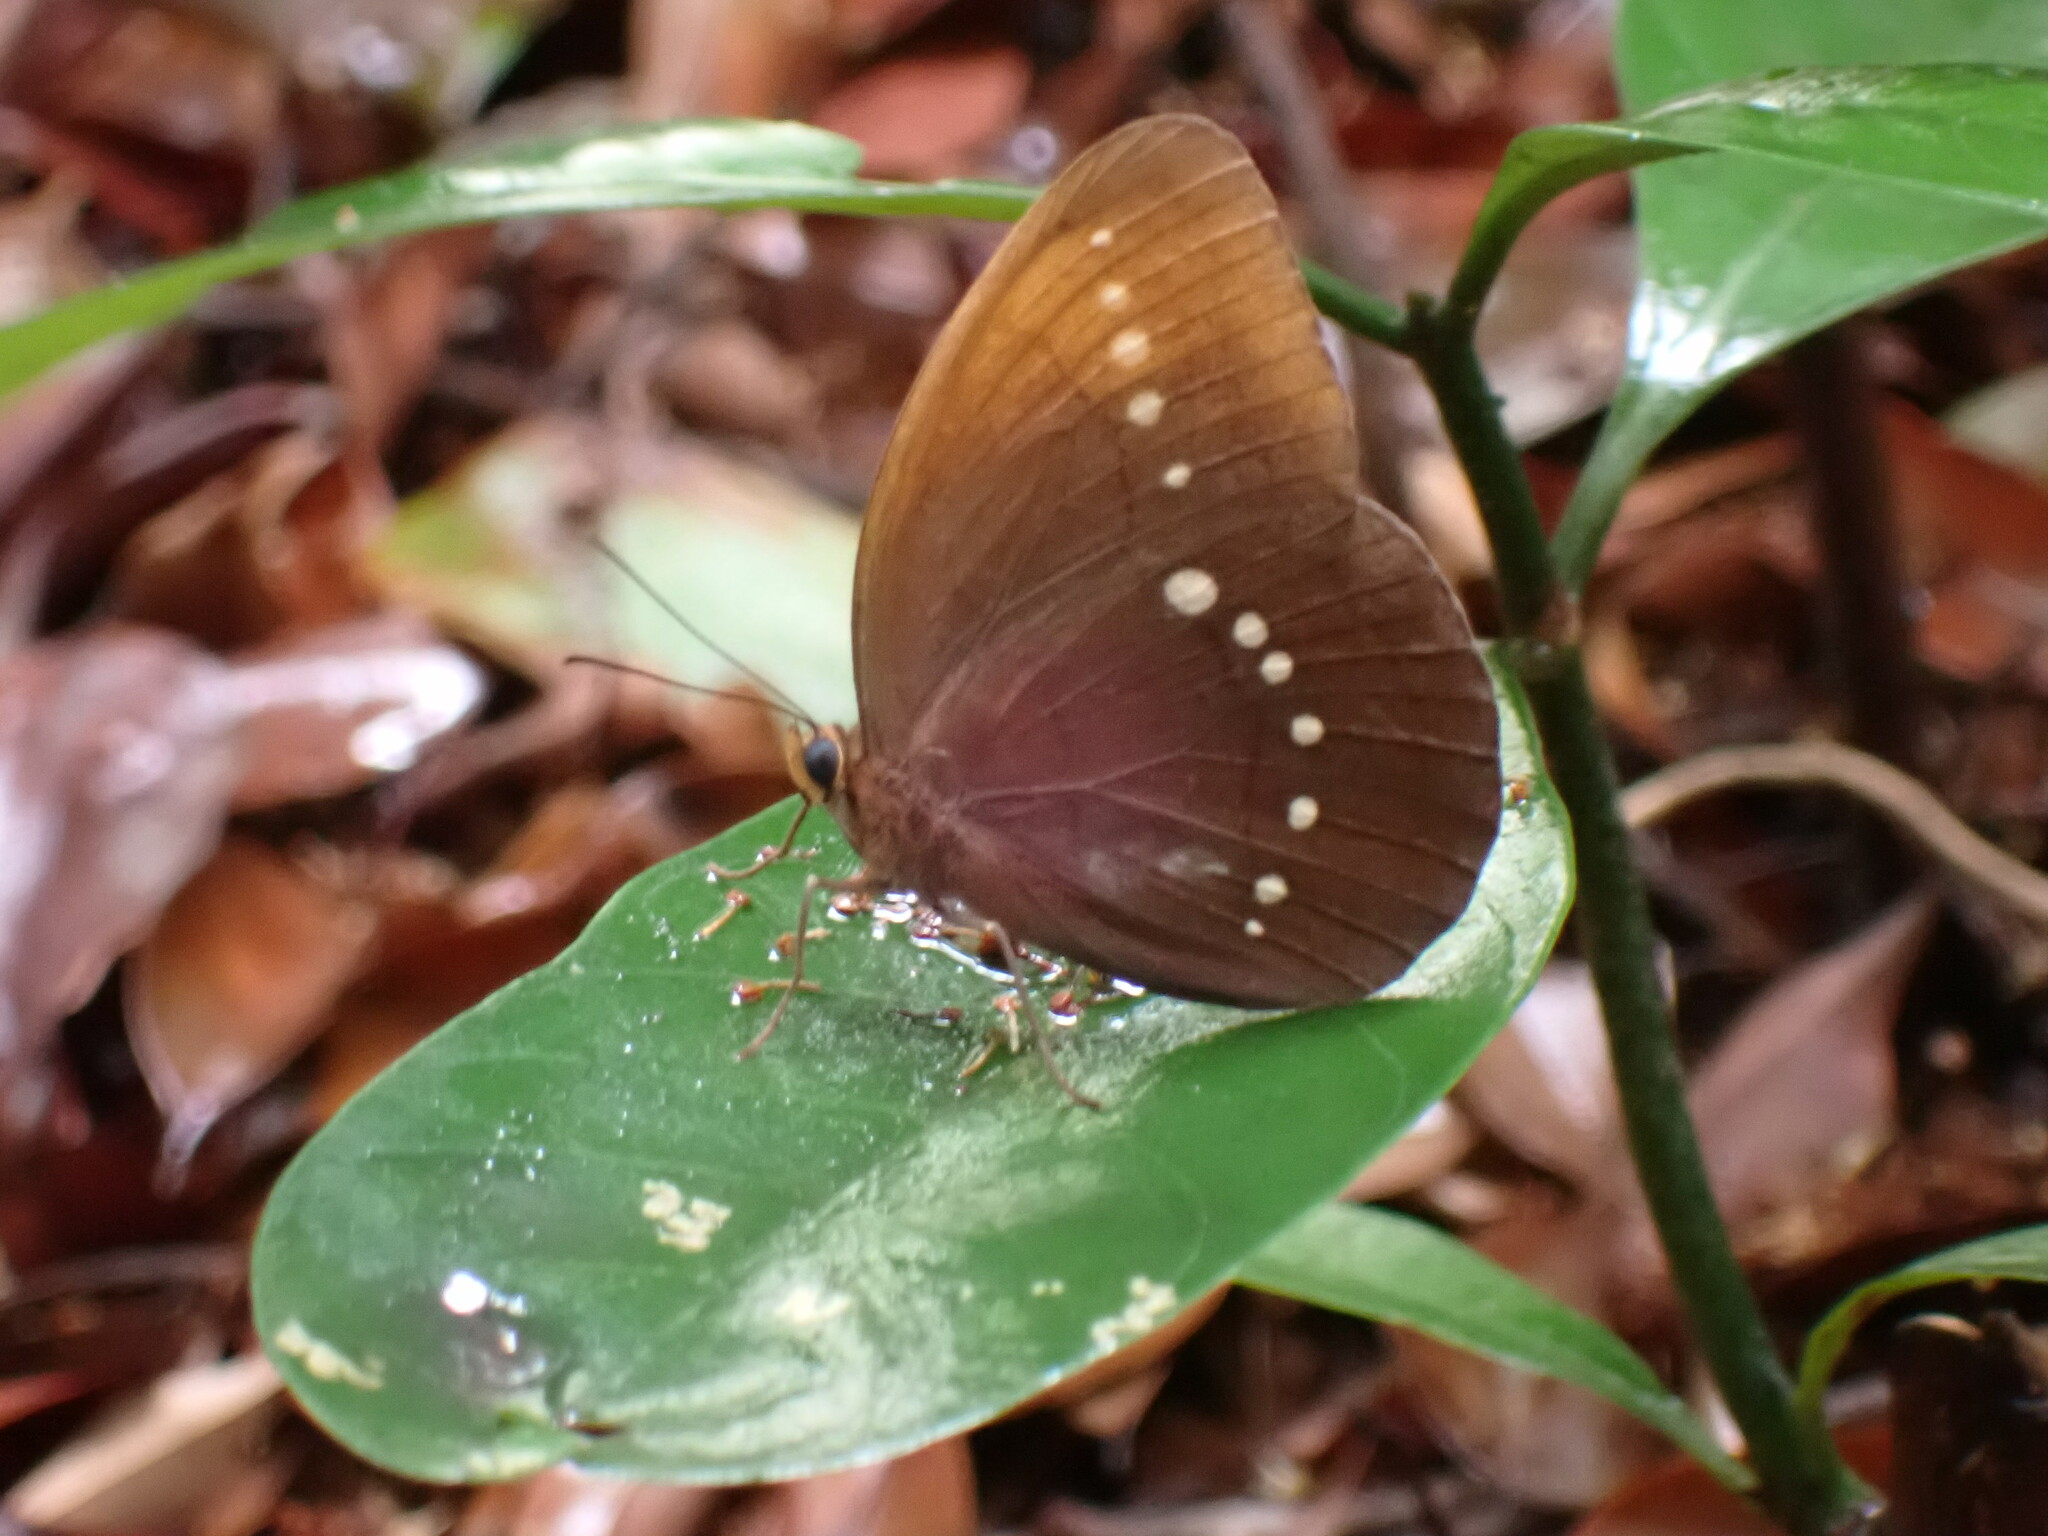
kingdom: Animalia
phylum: Arthropoda
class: Insecta
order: Lepidoptera
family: Nymphalidae
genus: Faunis
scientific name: Faunis eumeus
